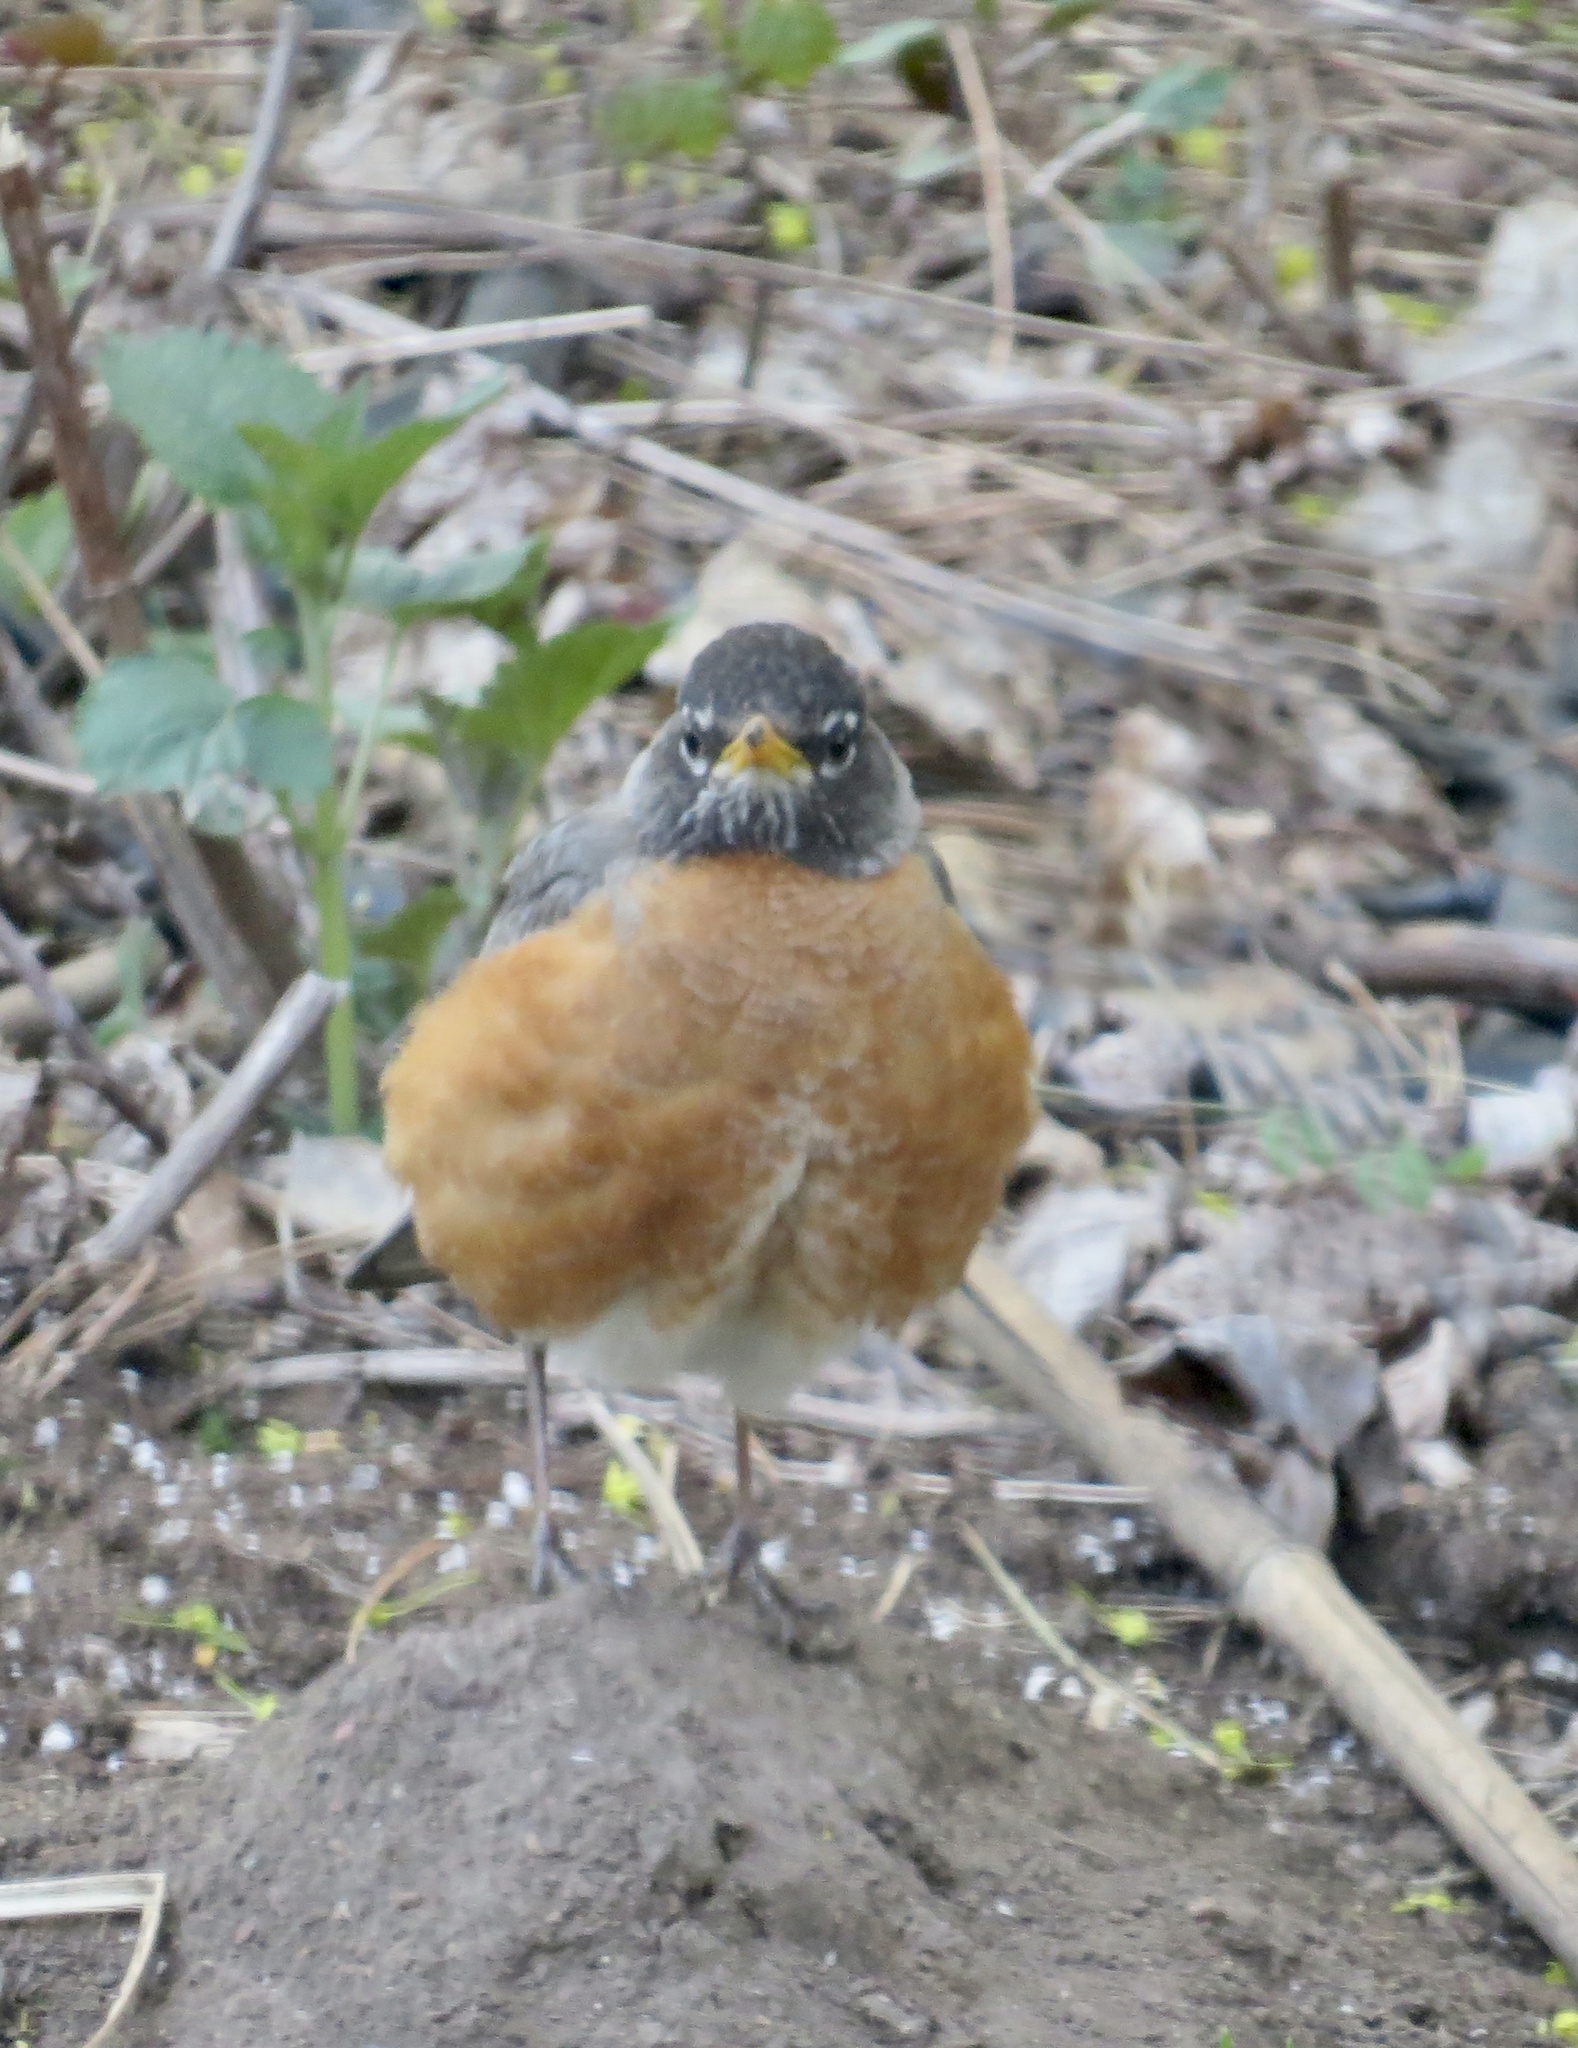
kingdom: Animalia
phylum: Chordata
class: Aves
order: Passeriformes
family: Turdidae
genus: Turdus
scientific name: Turdus migratorius
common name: American robin
